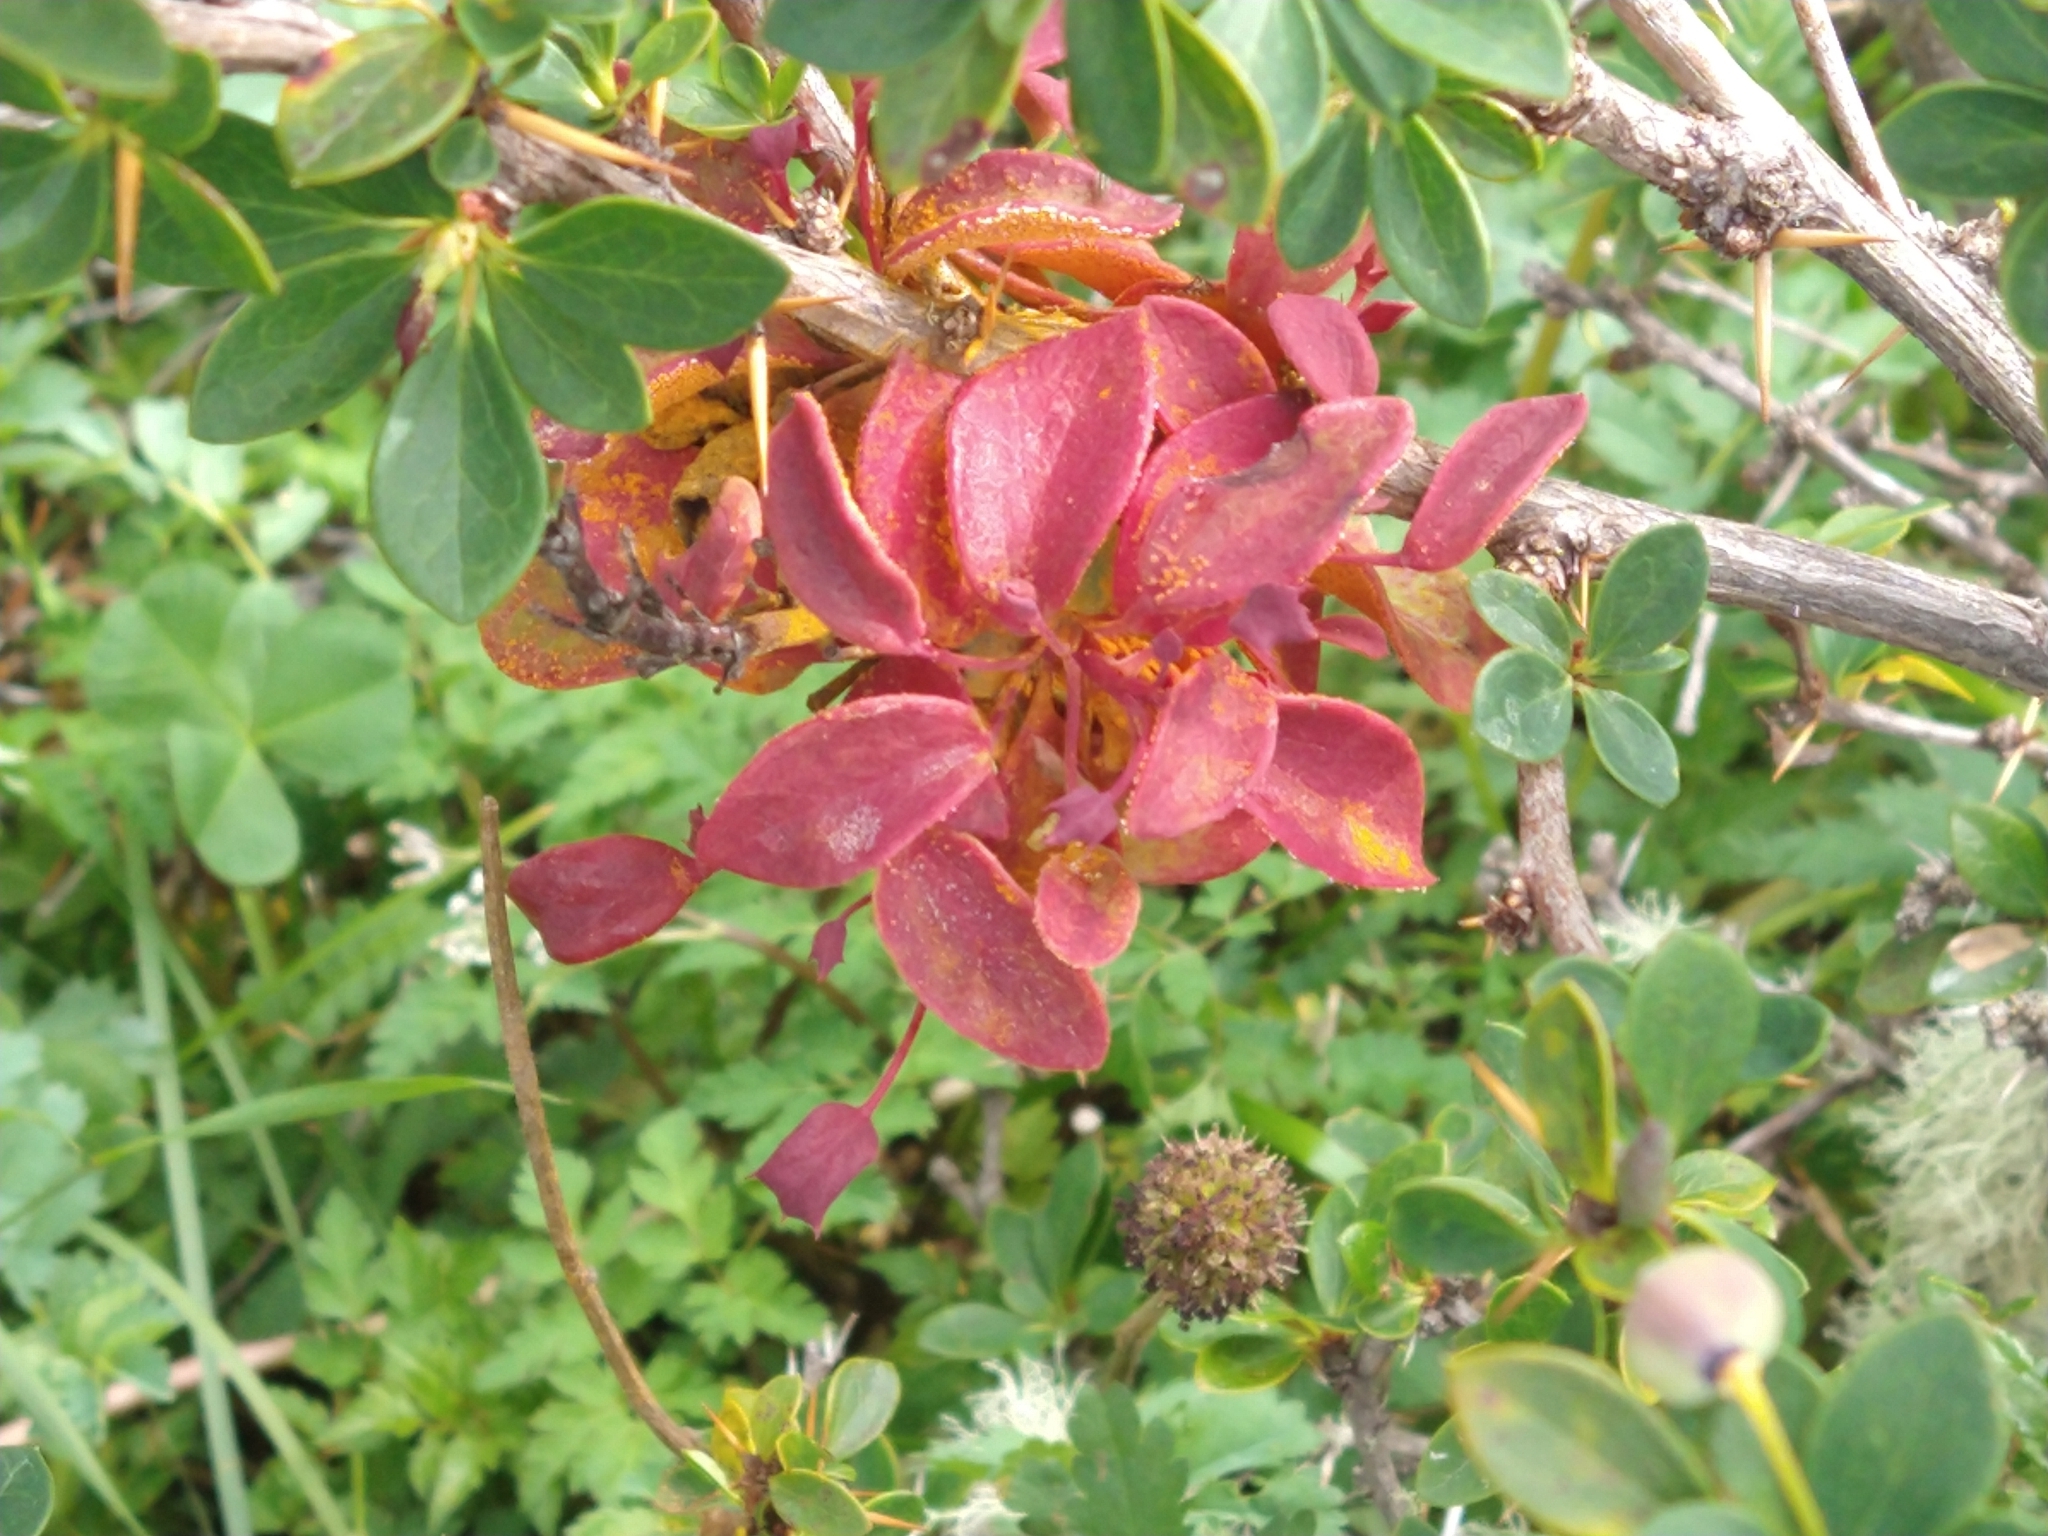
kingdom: Fungi
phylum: Basidiomycota
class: Pucciniomycetes
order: Pucciniales
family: Pucciniaceae
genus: Puccinia
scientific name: Puccinia magellanica
